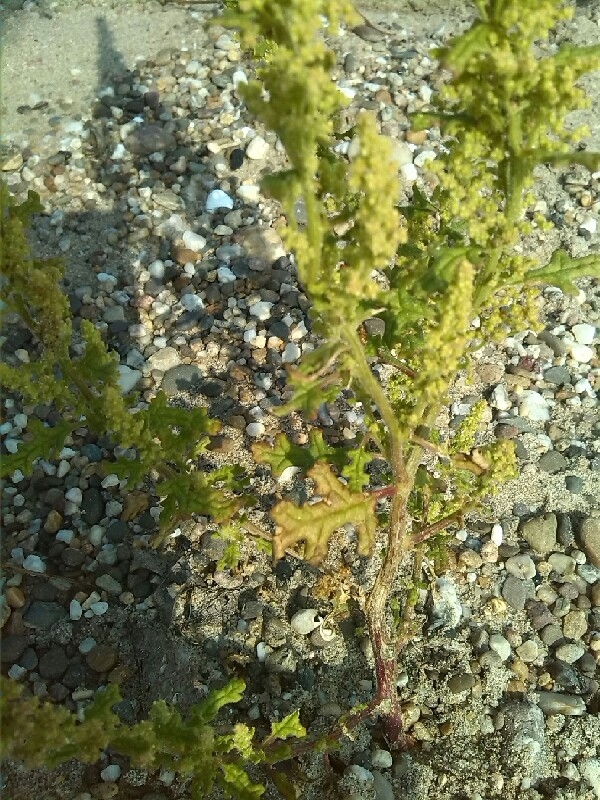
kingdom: Plantae
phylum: Tracheophyta
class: Magnoliopsida
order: Caryophyllales
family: Amaranthaceae
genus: Dysphania
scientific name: Dysphania botrys
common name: Feather-geranium
